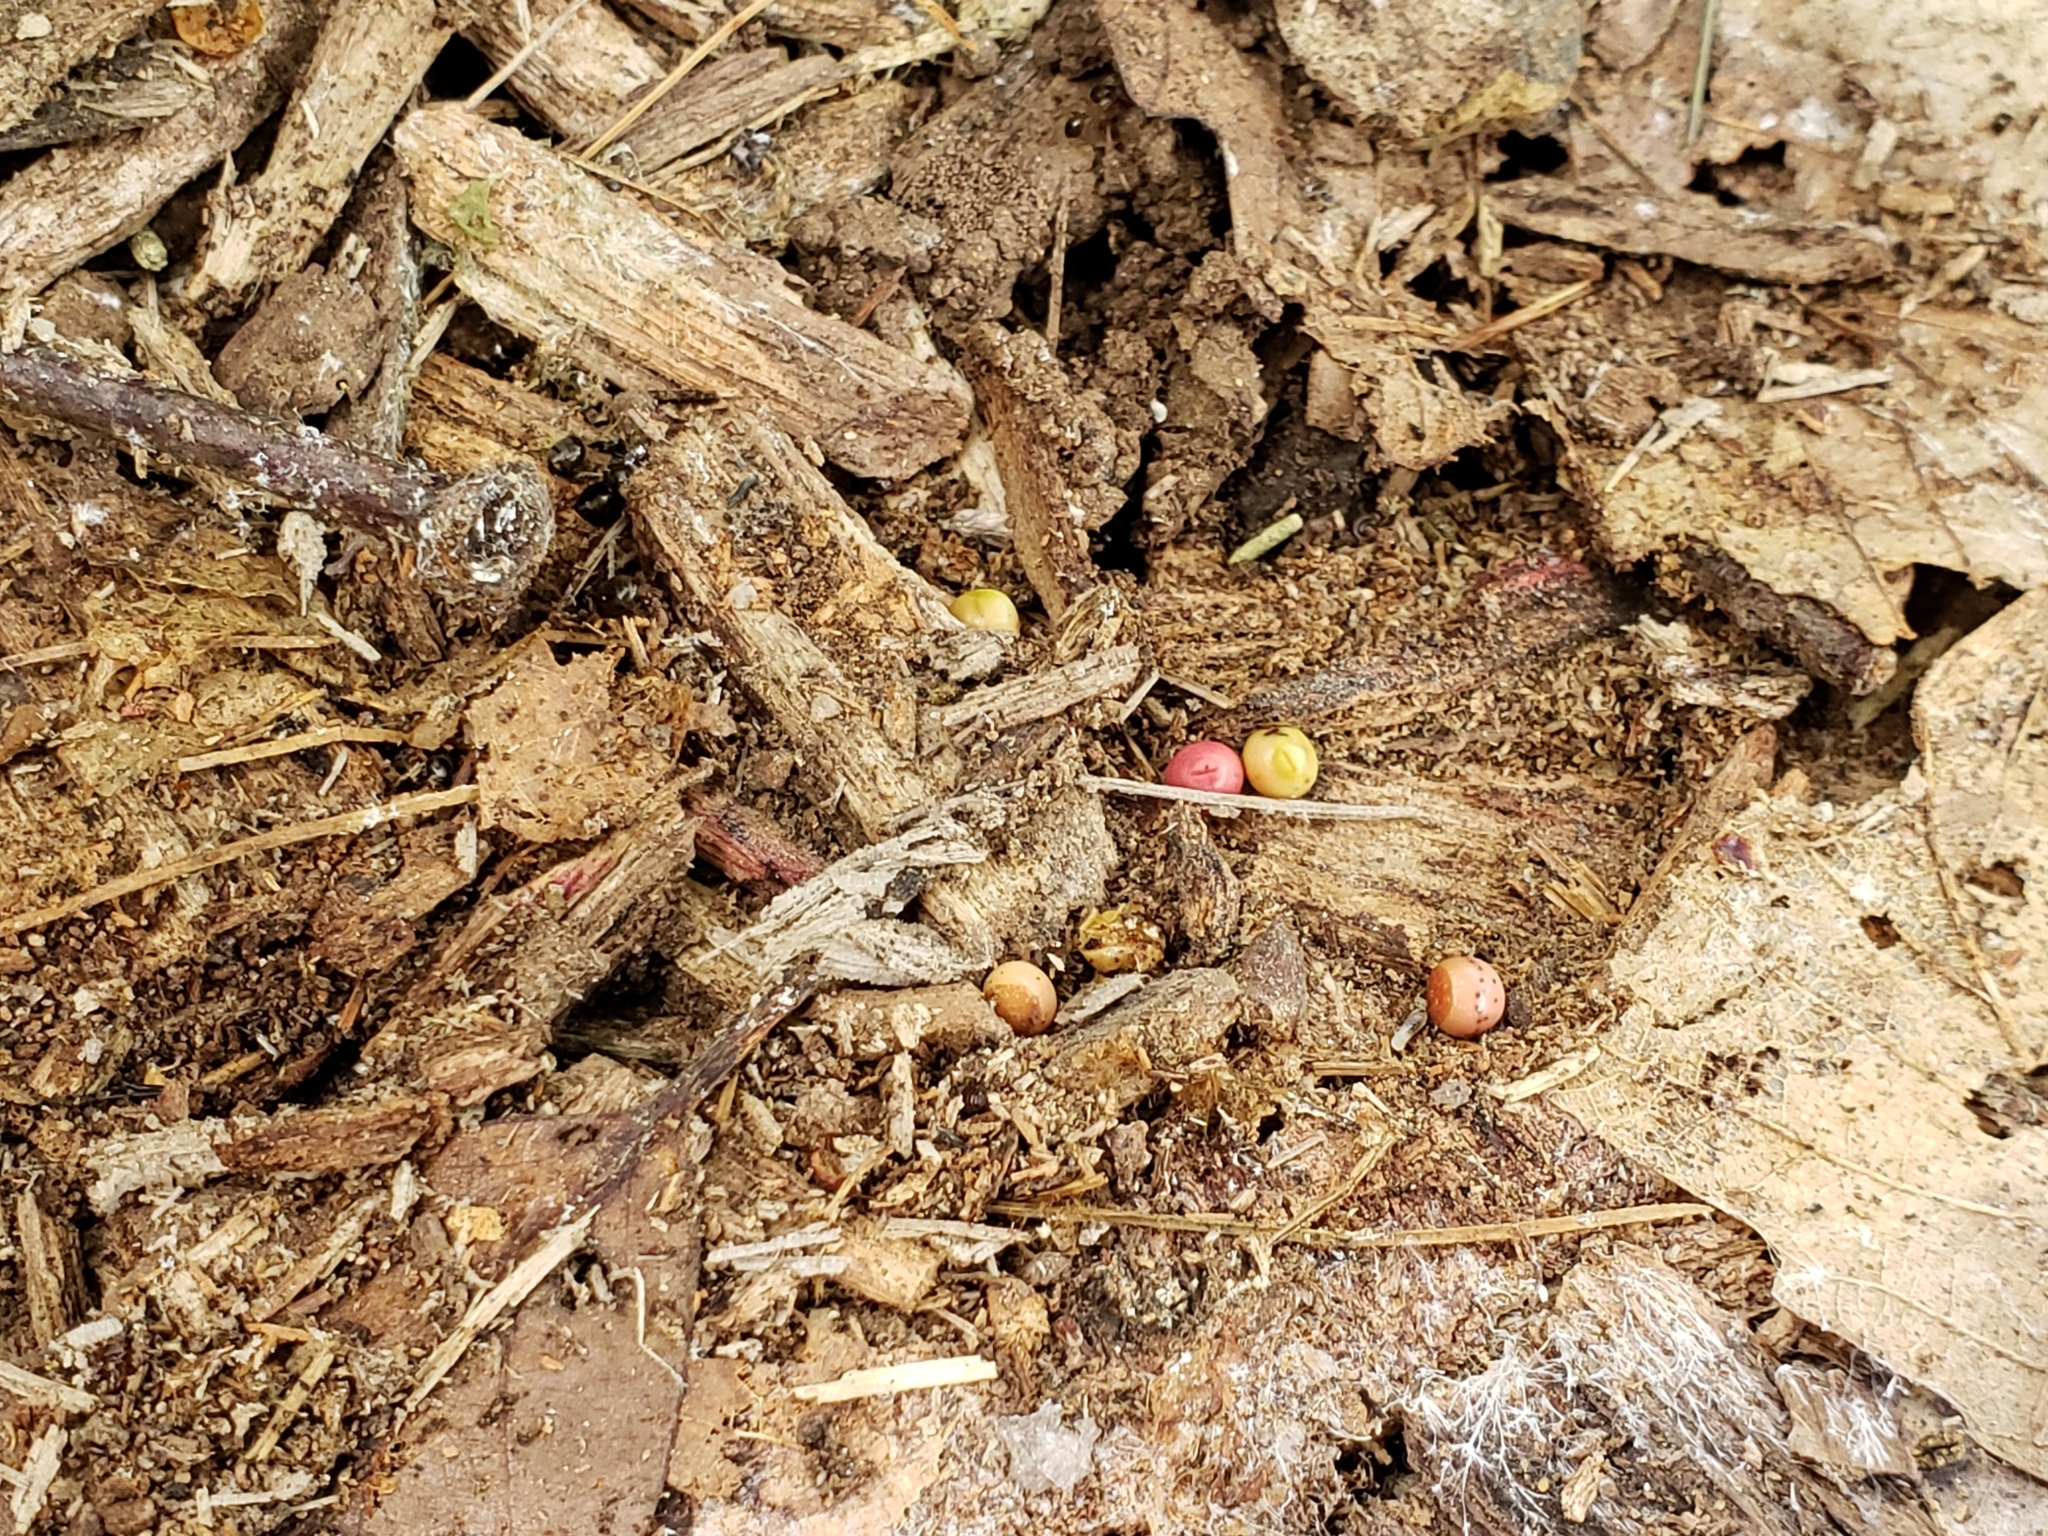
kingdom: Animalia
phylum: Arthropoda
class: Insecta
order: Hymenoptera
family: Cynipidae
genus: Kokkocynips
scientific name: Kokkocynips rileyi
